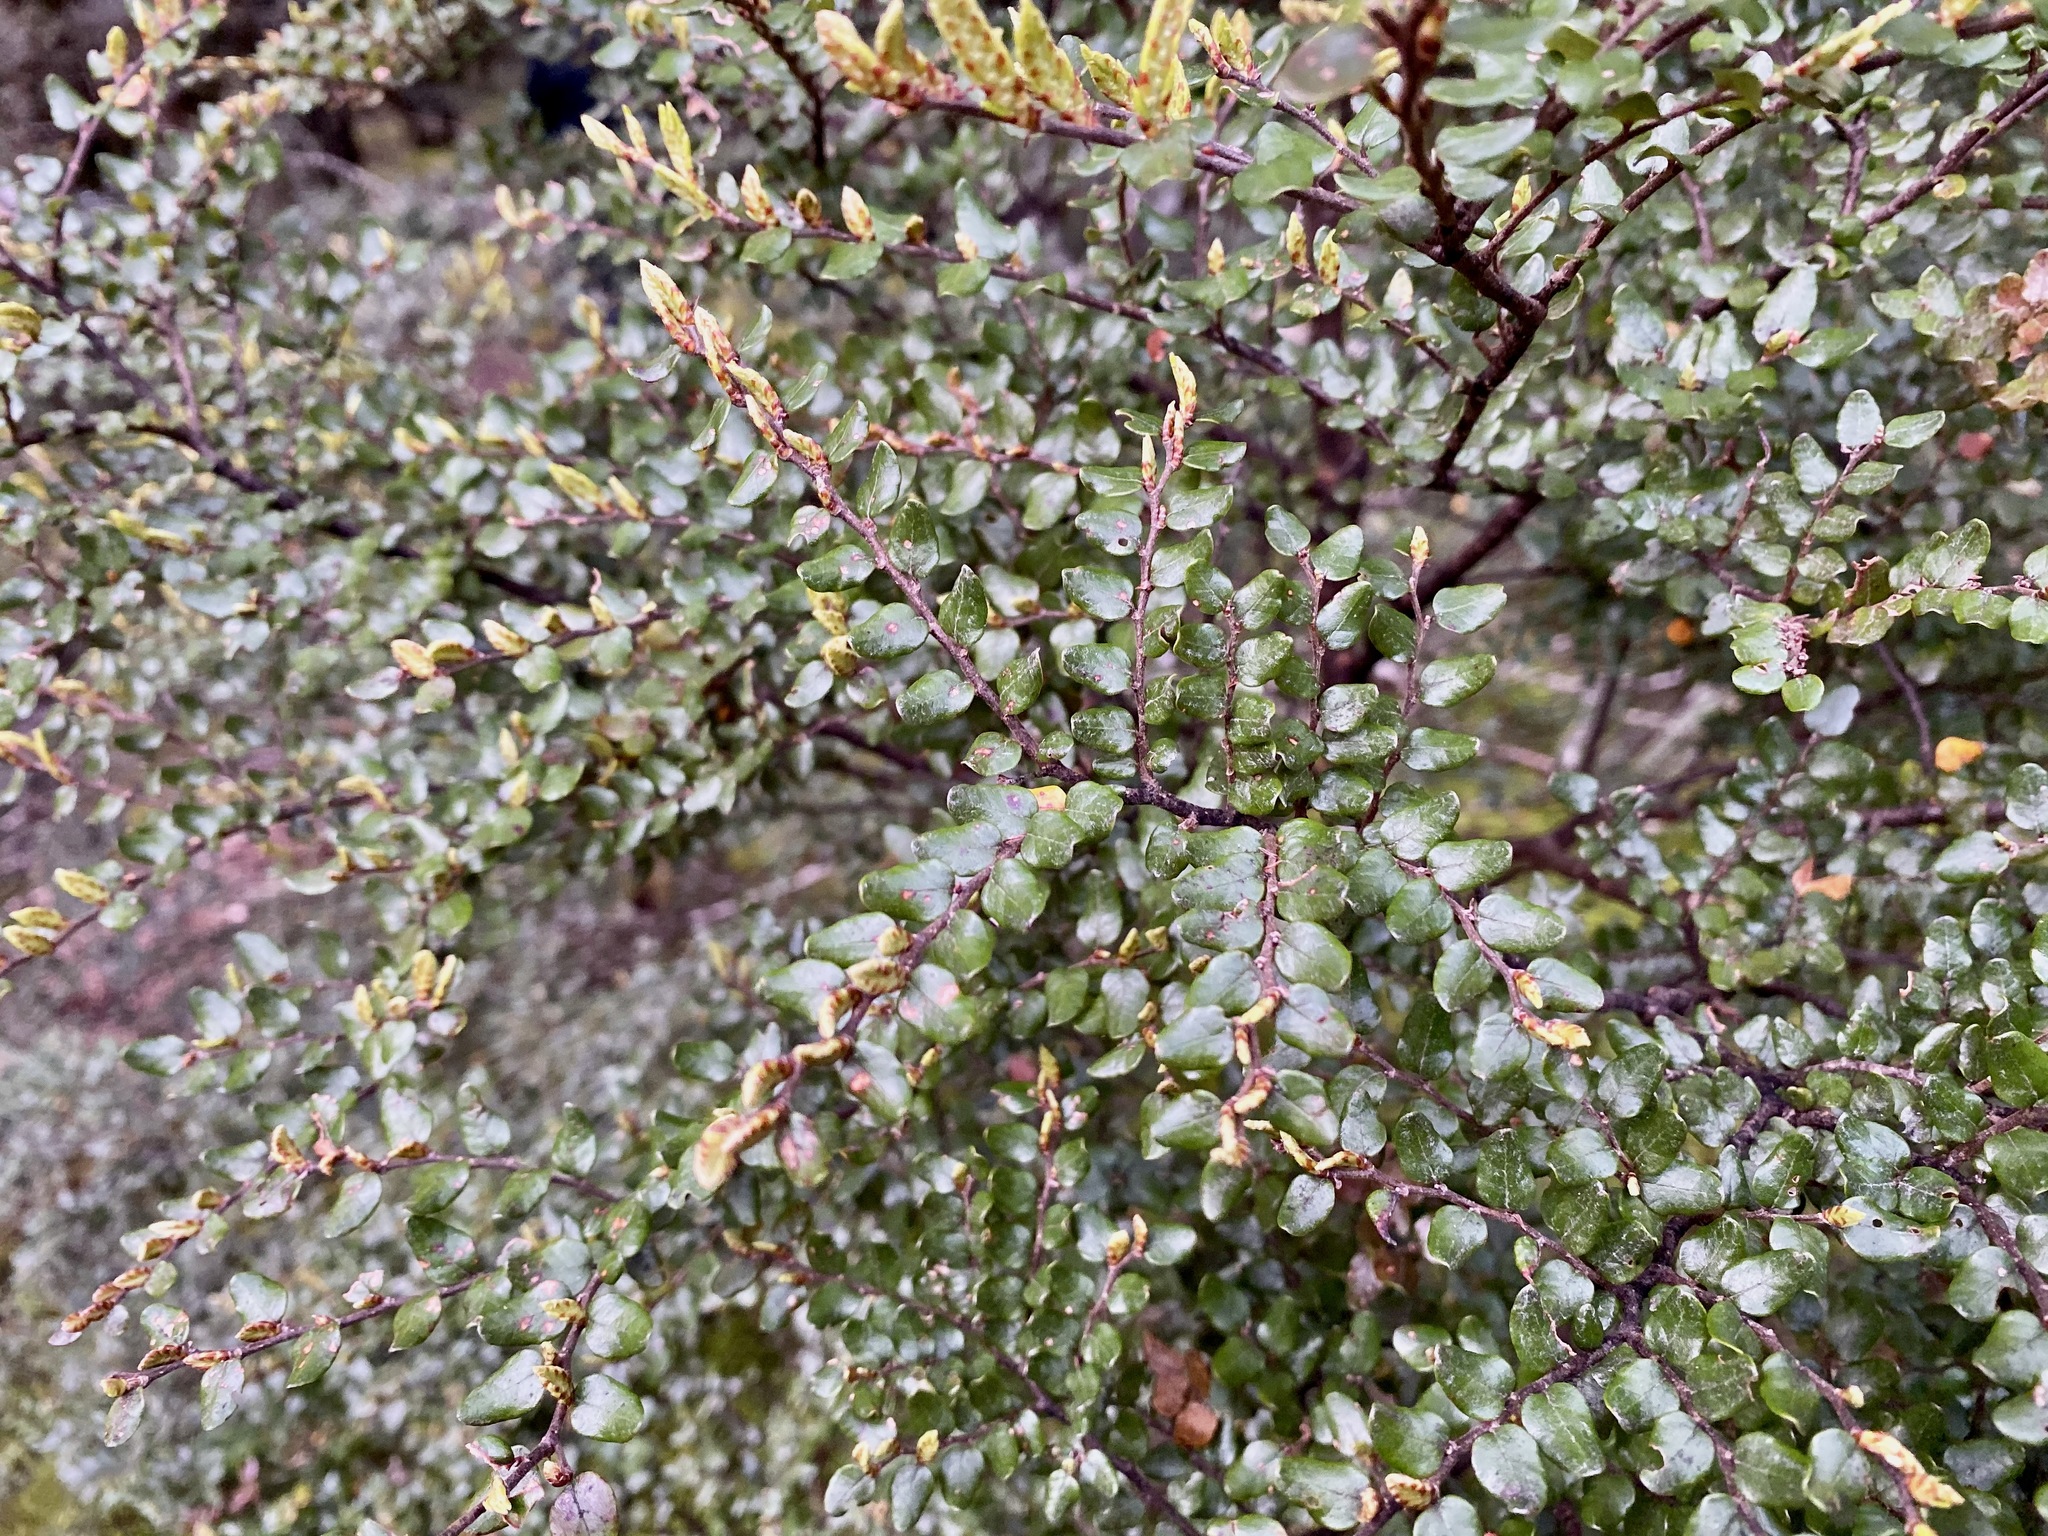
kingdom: Plantae
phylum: Tracheophyta
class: Magnoliopsida
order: Fagales
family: Nothofagaceae
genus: Nothofagus
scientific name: Nothofagus cliffortioides
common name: Mountain beech
